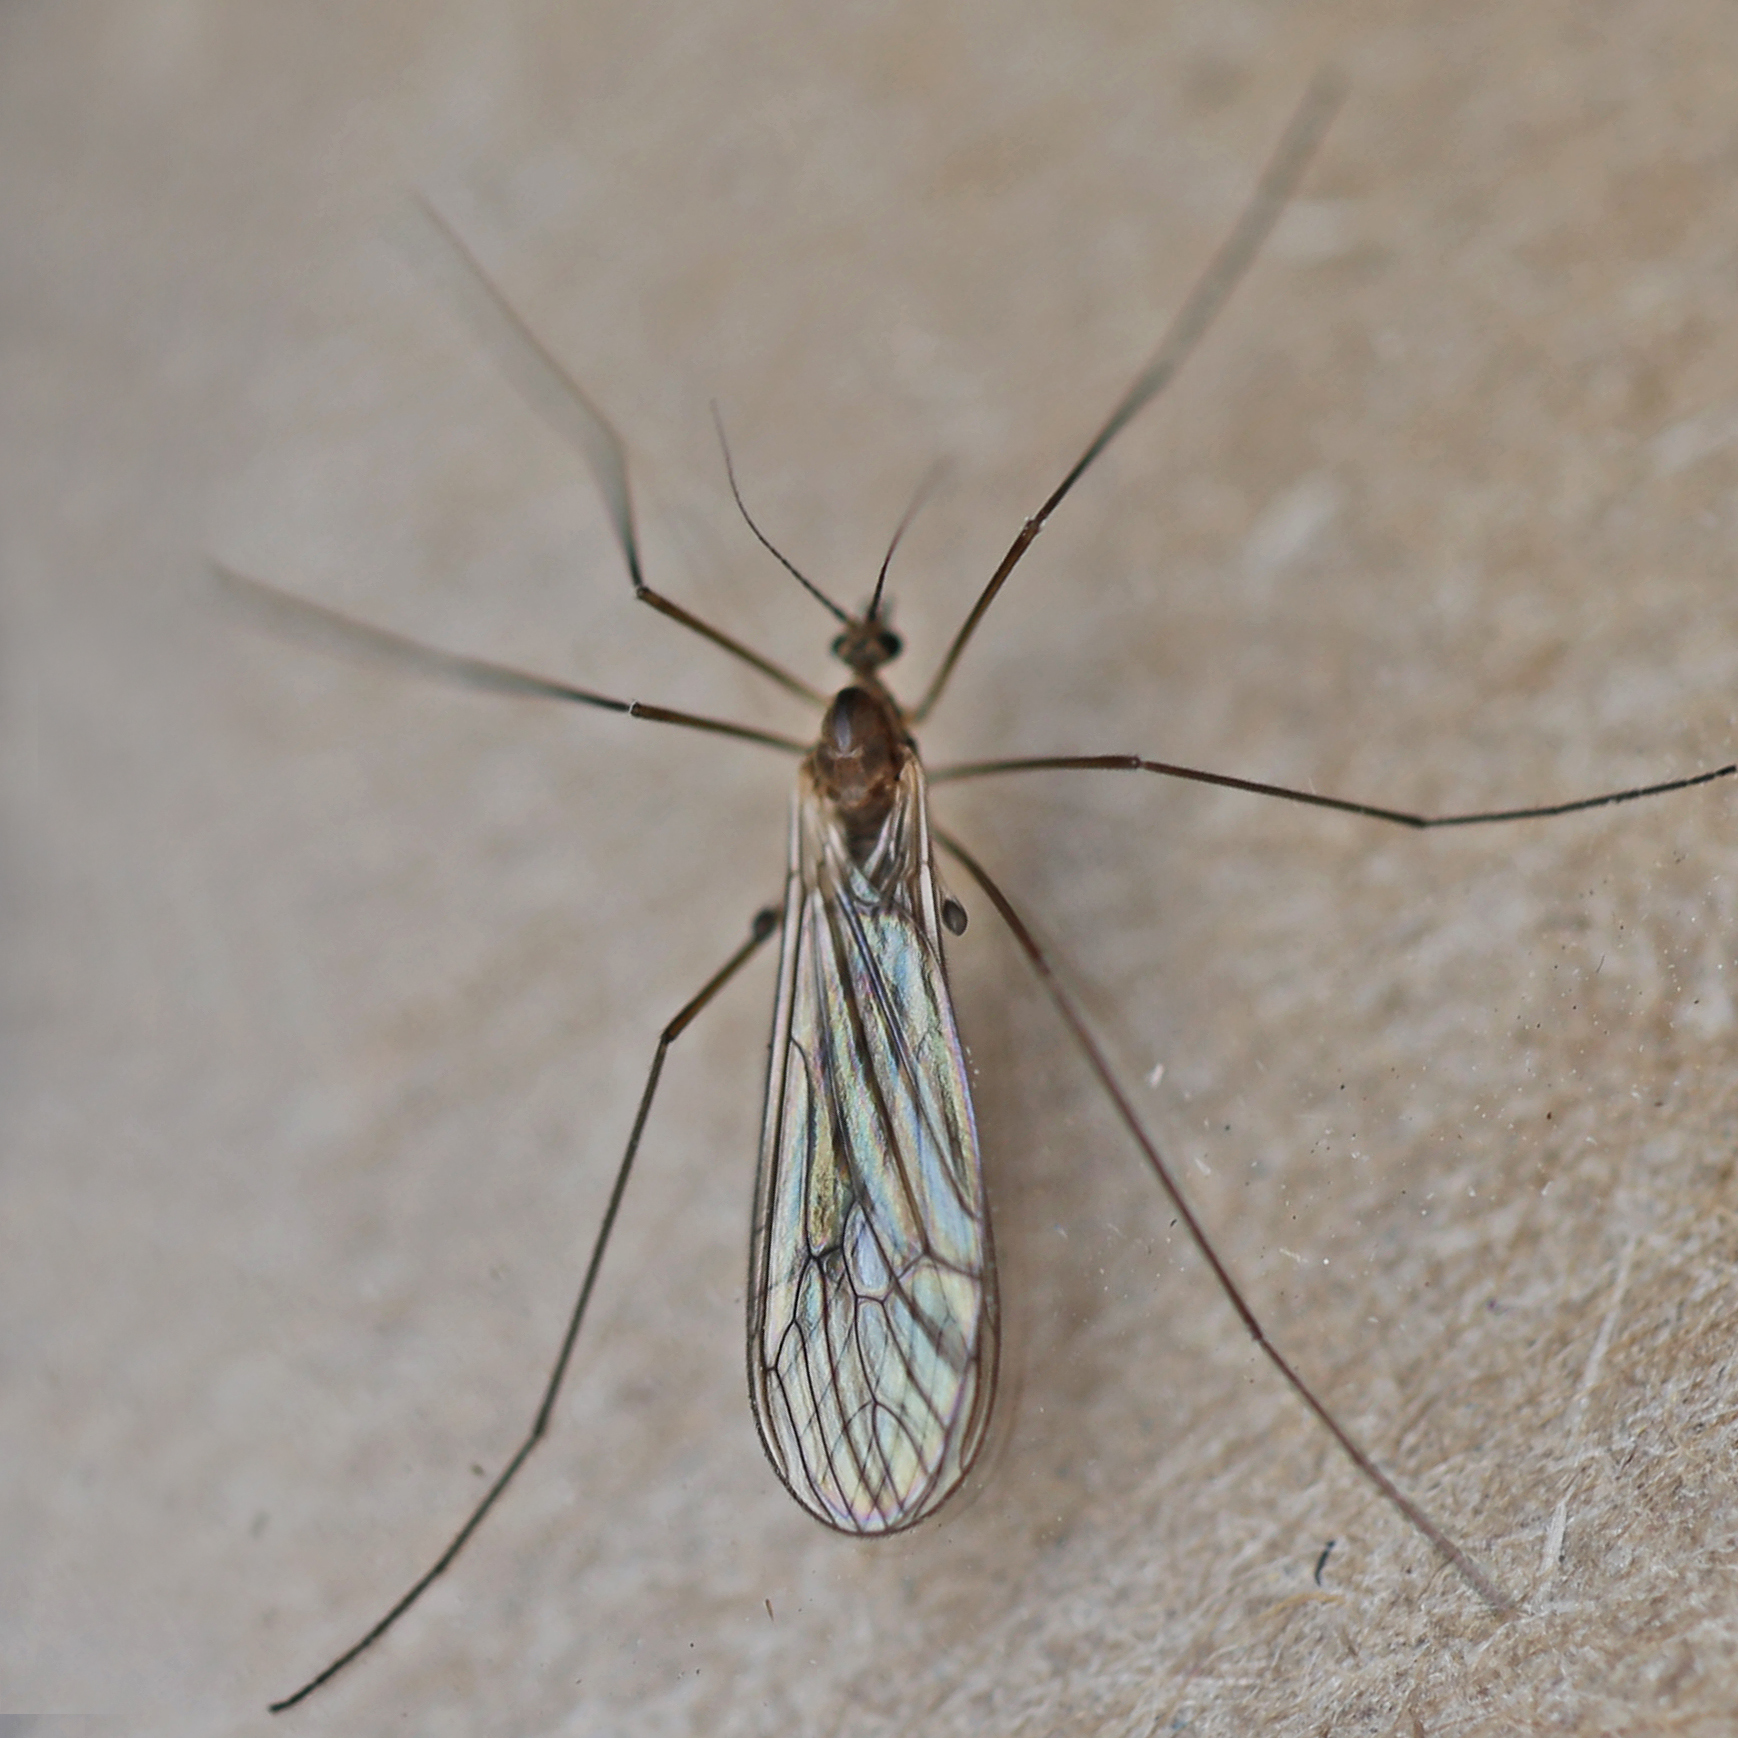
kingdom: Animalia
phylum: Arthropoda
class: Insecta
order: Diptera
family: Trichoceridae
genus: Trichocera
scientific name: Trichocera annulata
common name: Winter gnat
